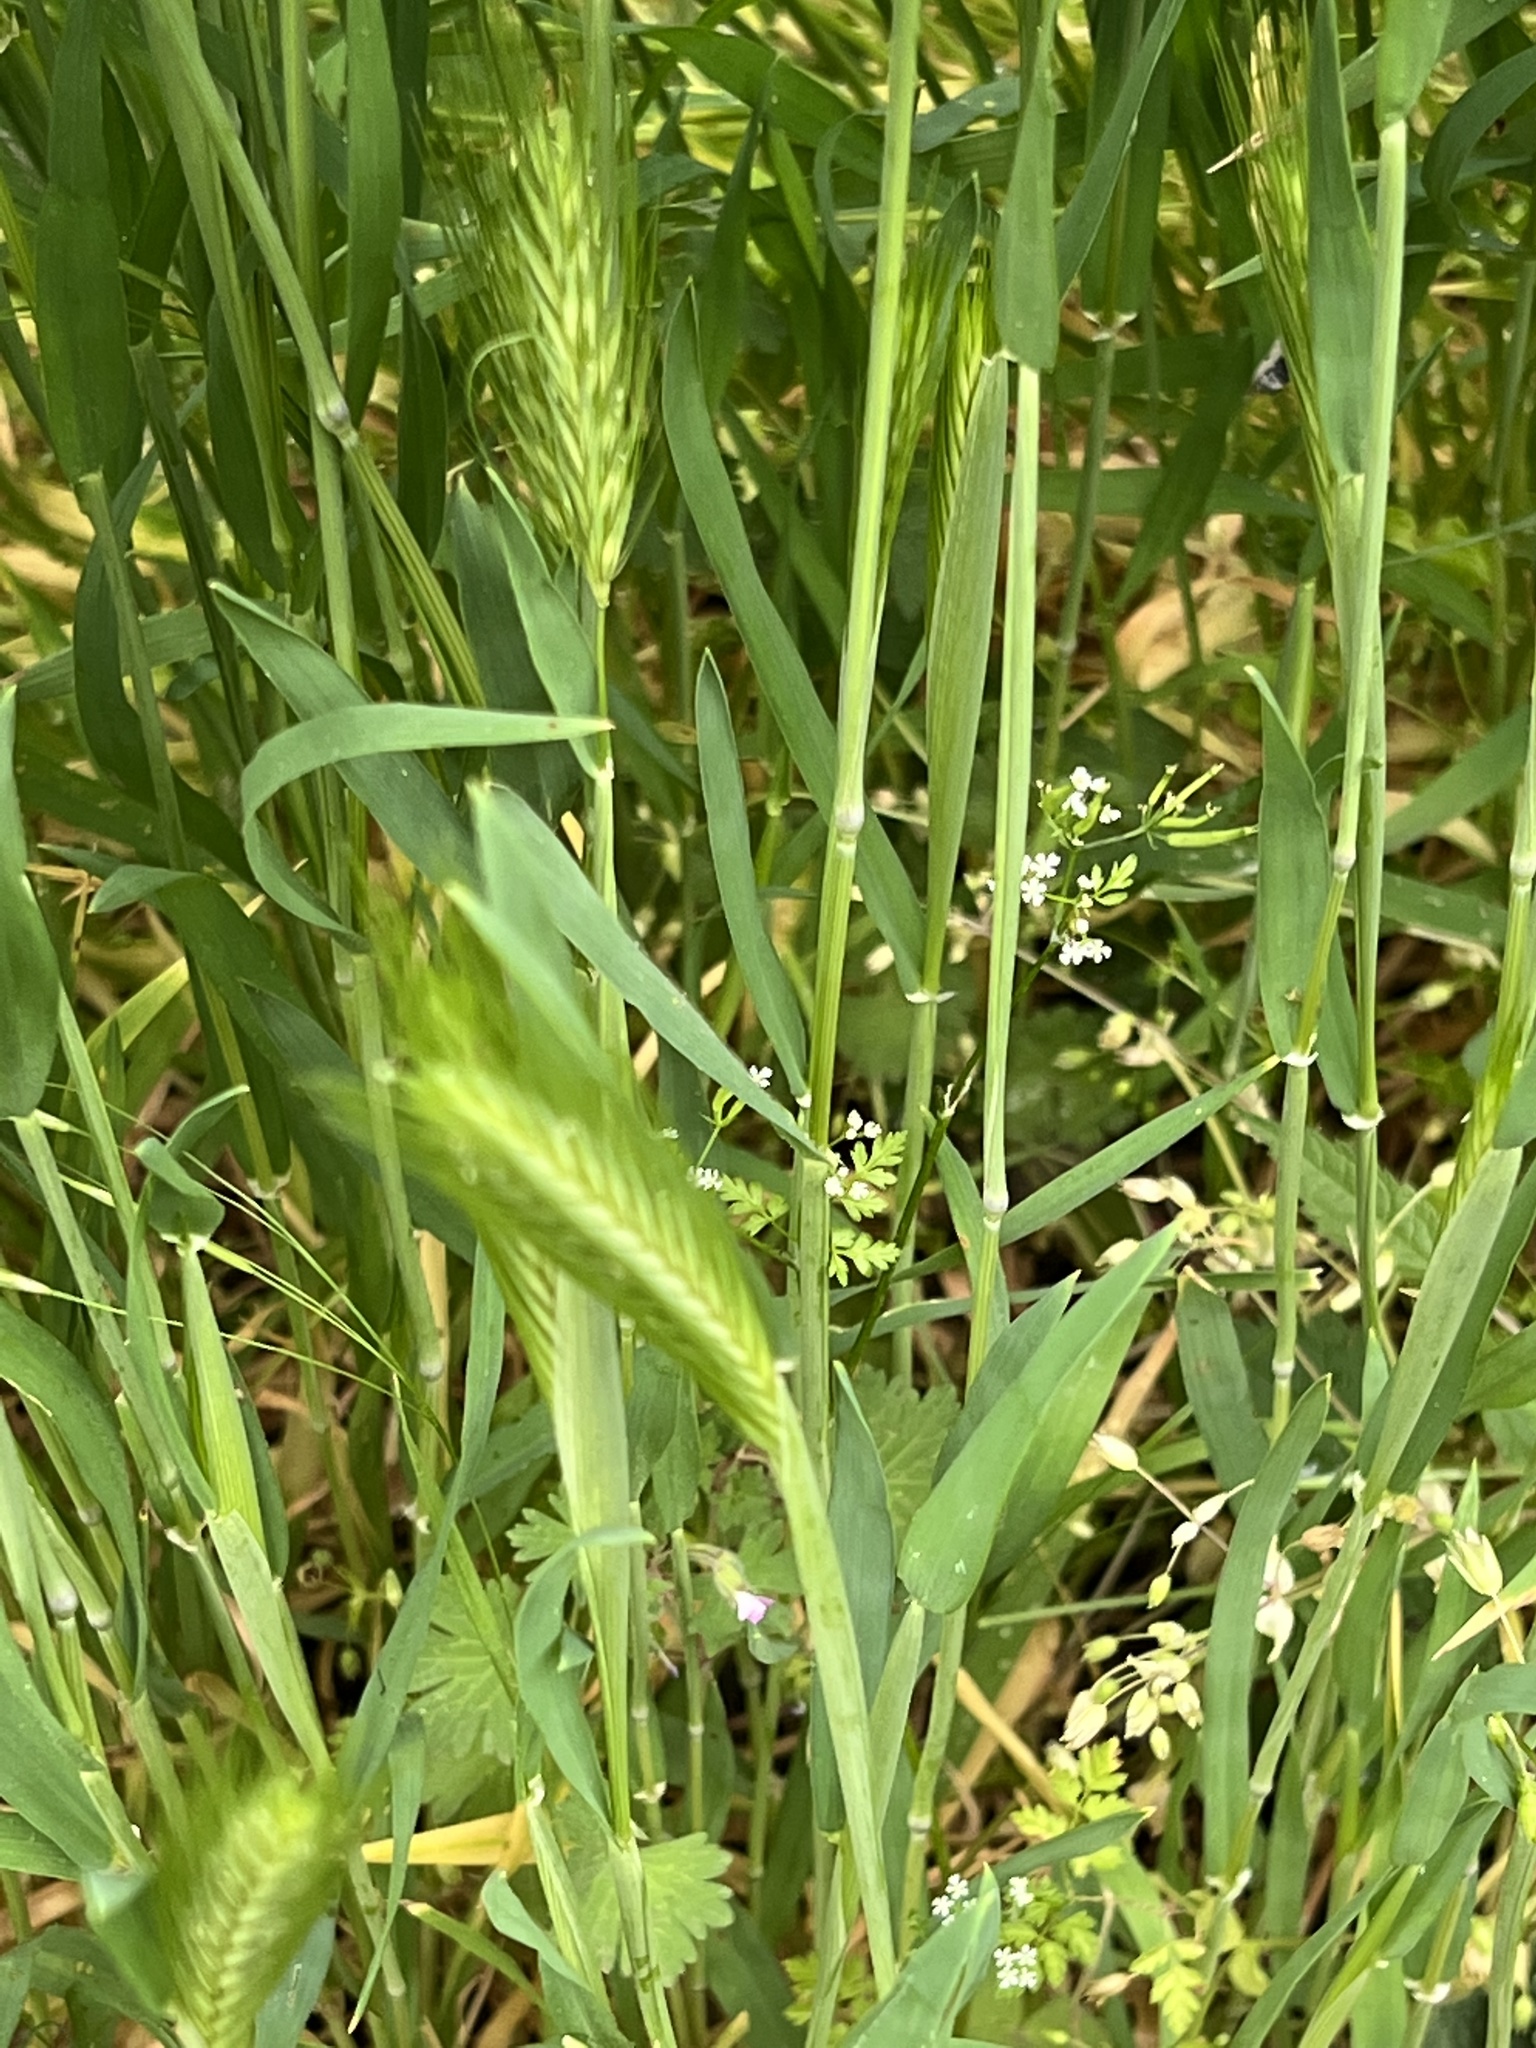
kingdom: Plantae
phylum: Tracheophyta
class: Liliopsida
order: Poales
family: Poaceae
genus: Hordeum
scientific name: Hordeum murinum
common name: Wall barley
